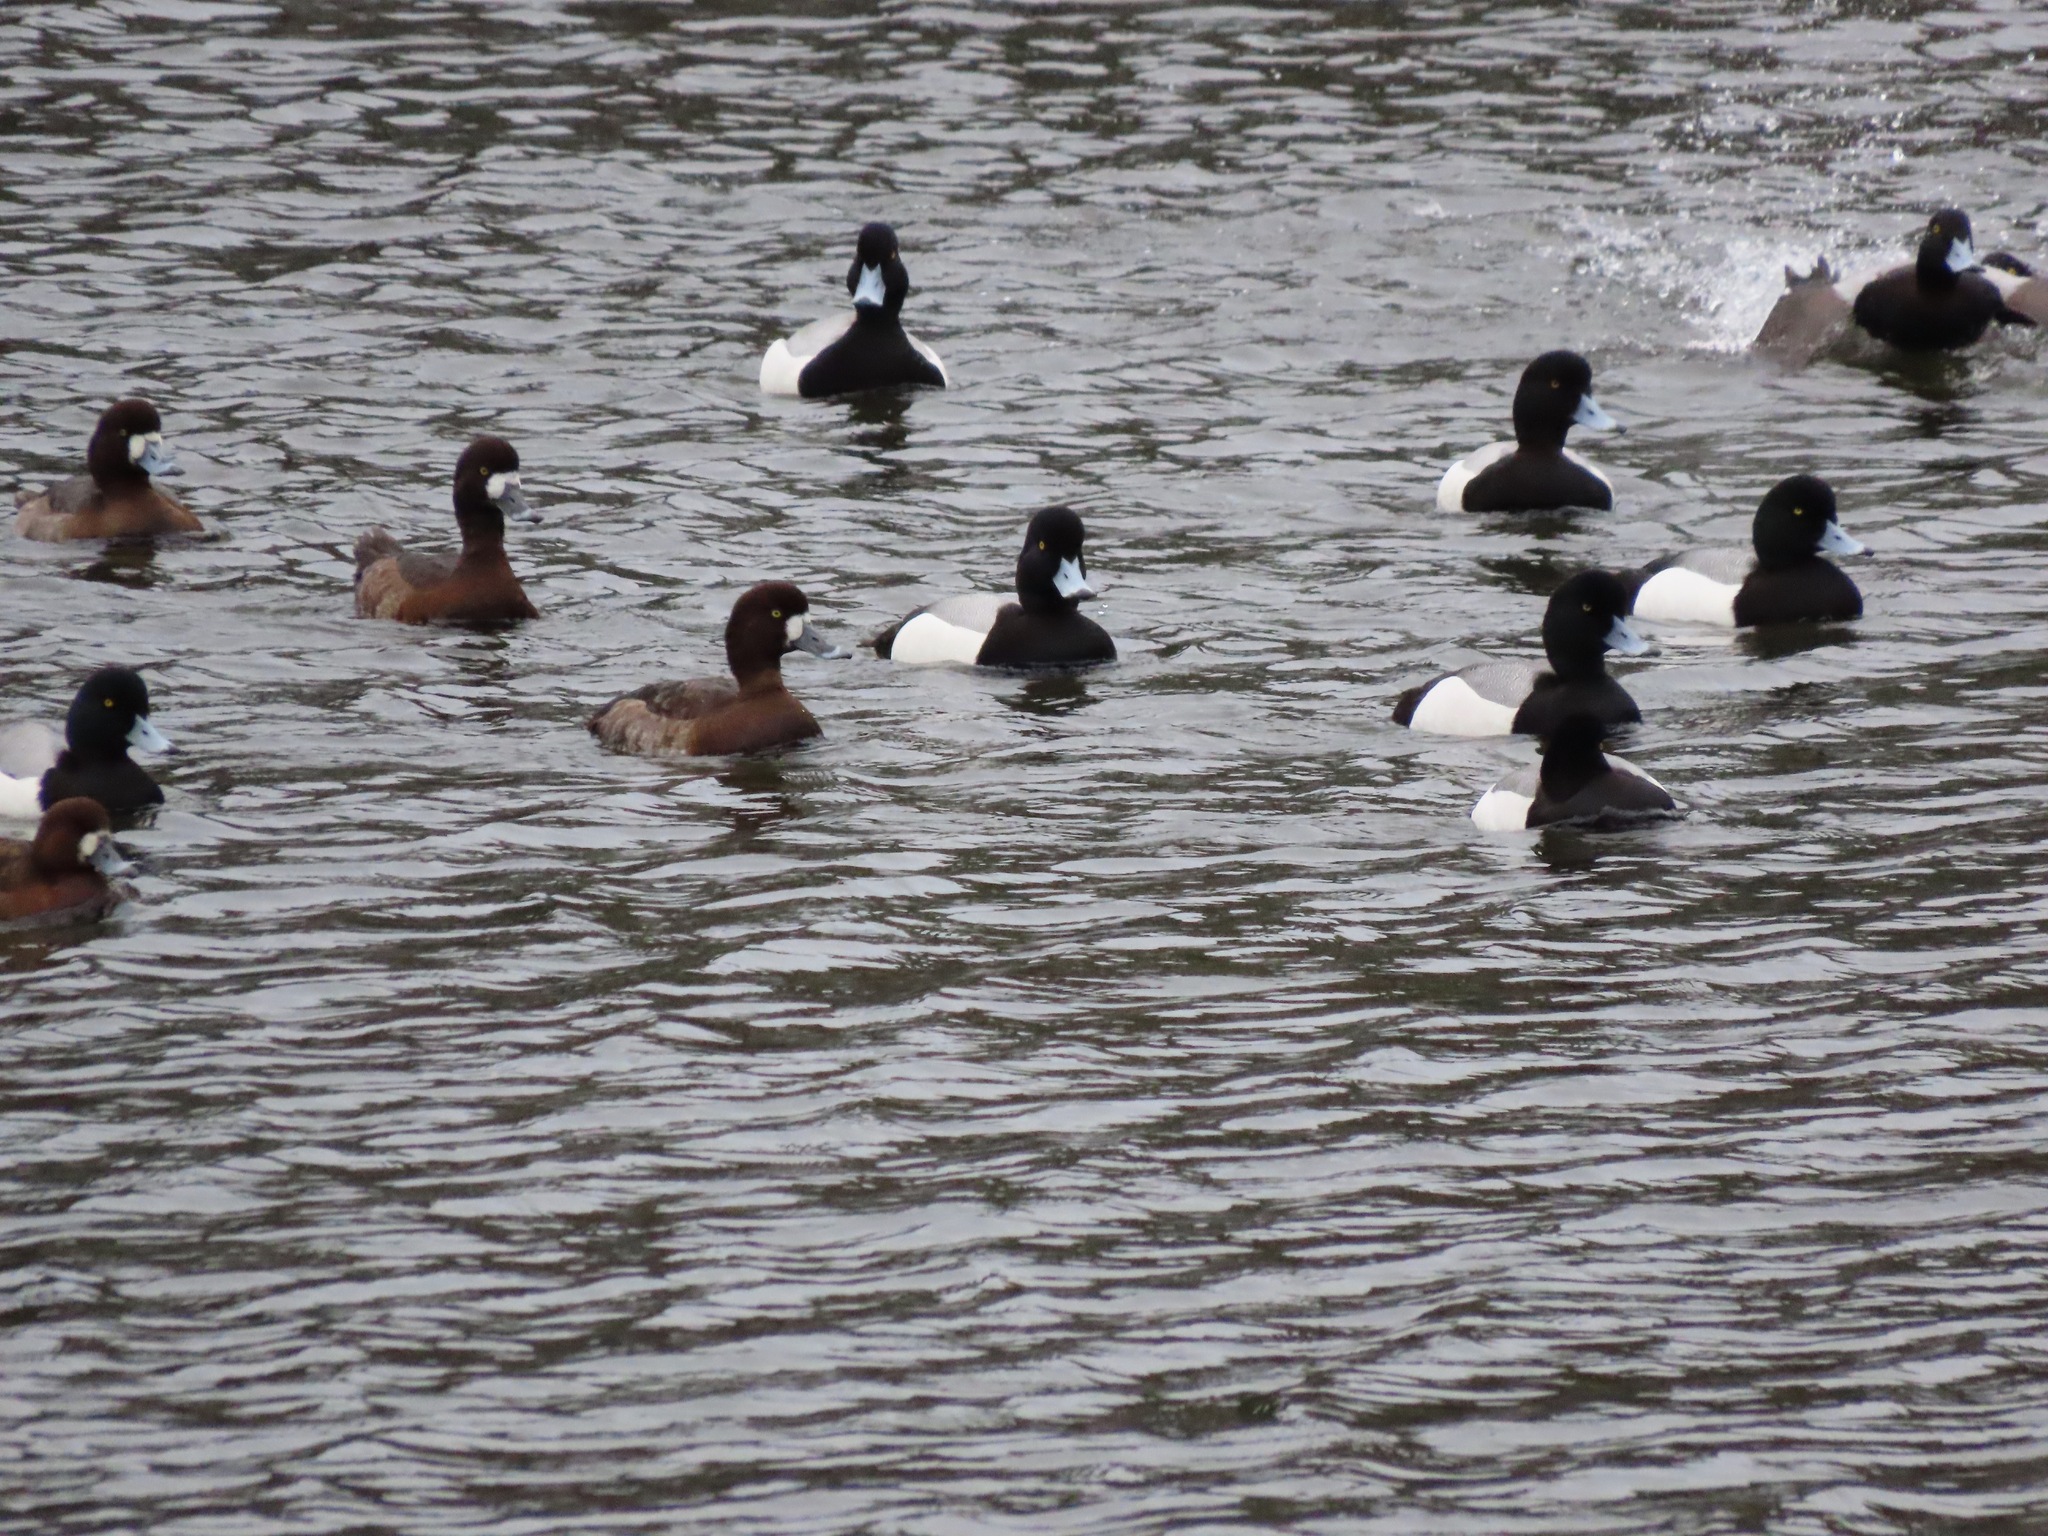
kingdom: Animalia
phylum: Chordata
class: Aves
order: Anseriformes
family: Anatidae
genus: Aythya
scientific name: Aythya marila
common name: Greater scaup
